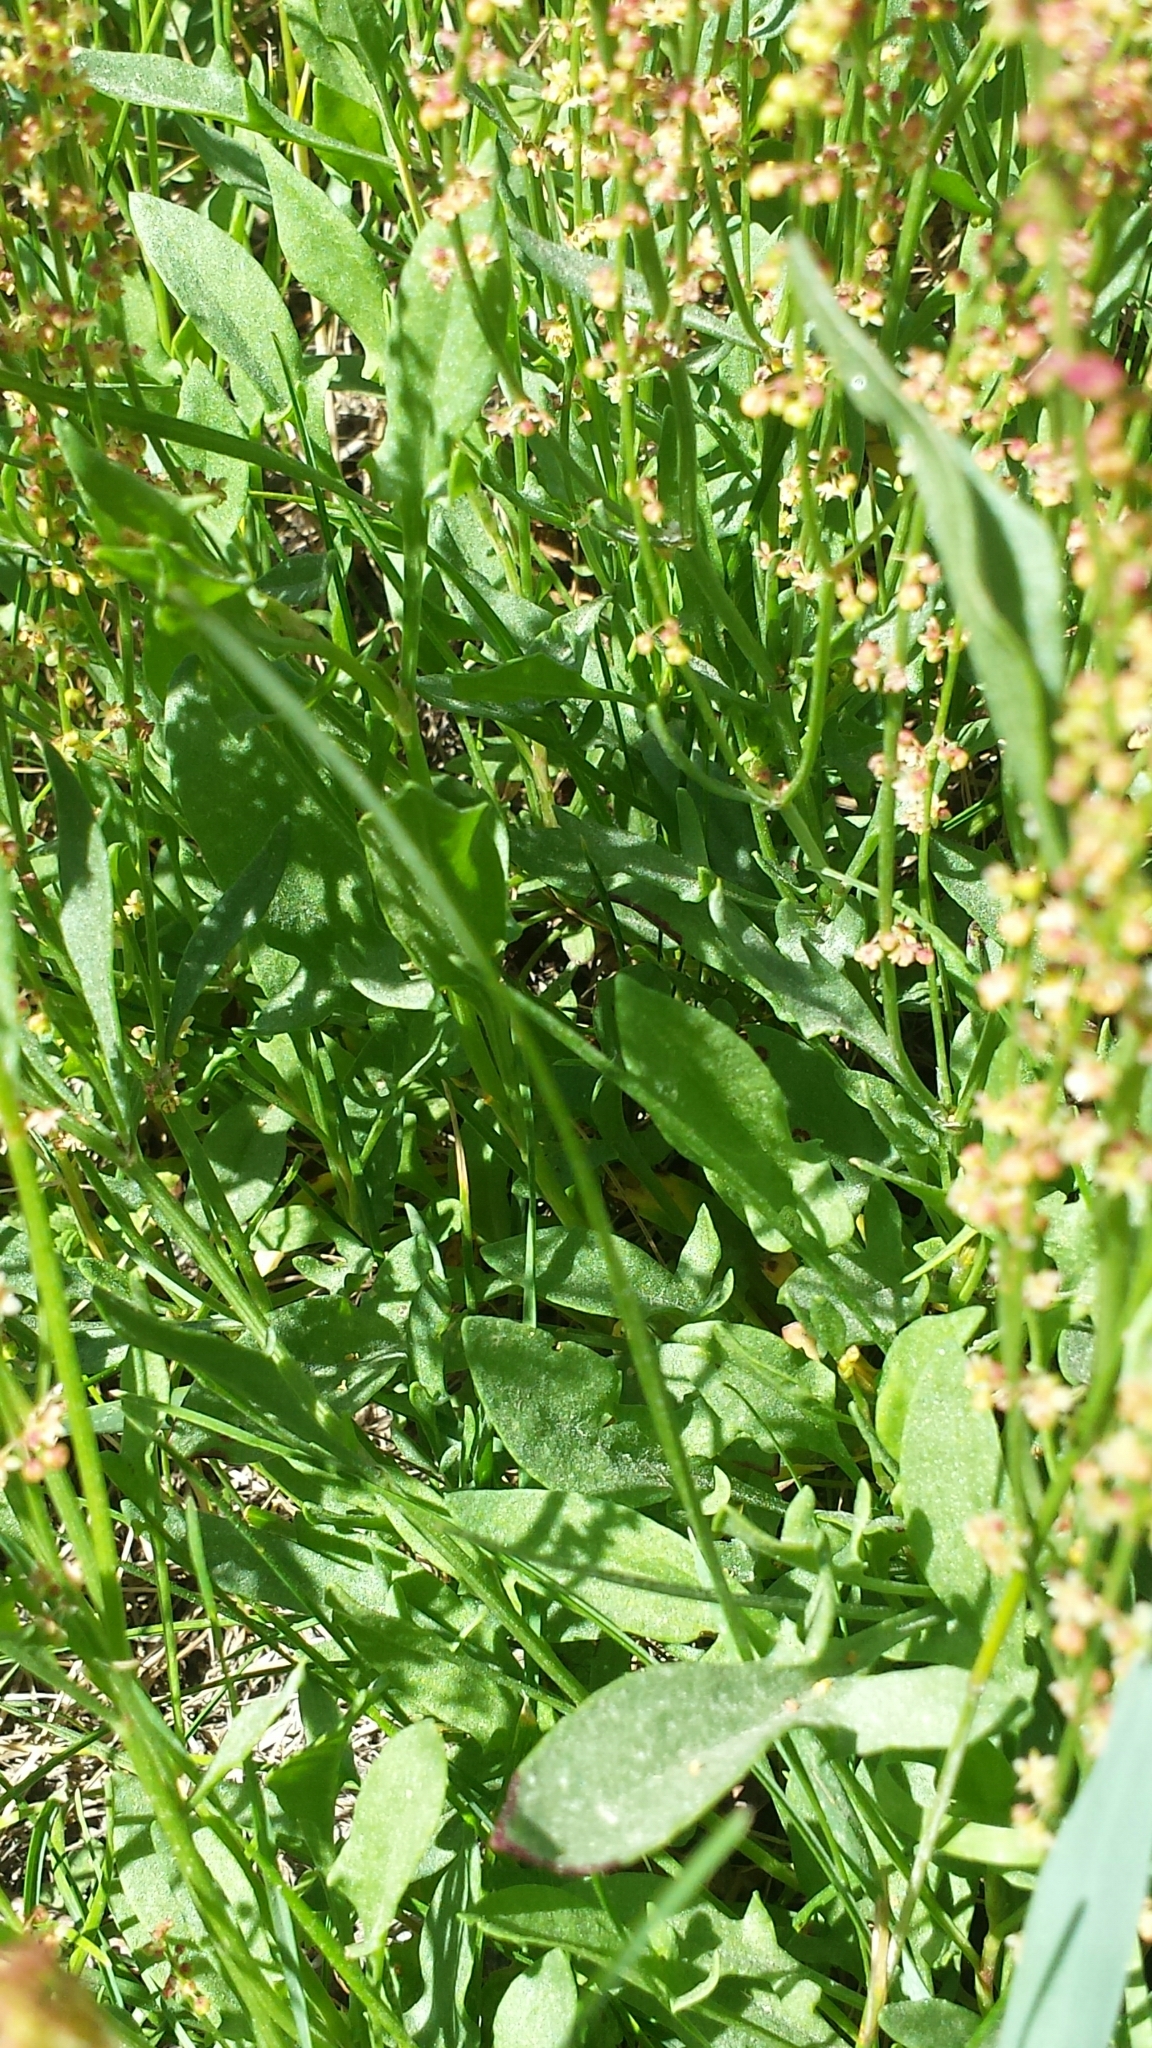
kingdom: Plantae
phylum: Tracheophyta
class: Magnoliopsida
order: Caryophyllales
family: Polygonaceae
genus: Rumex
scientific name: Rumex acetosella
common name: Common sheep sorrel
